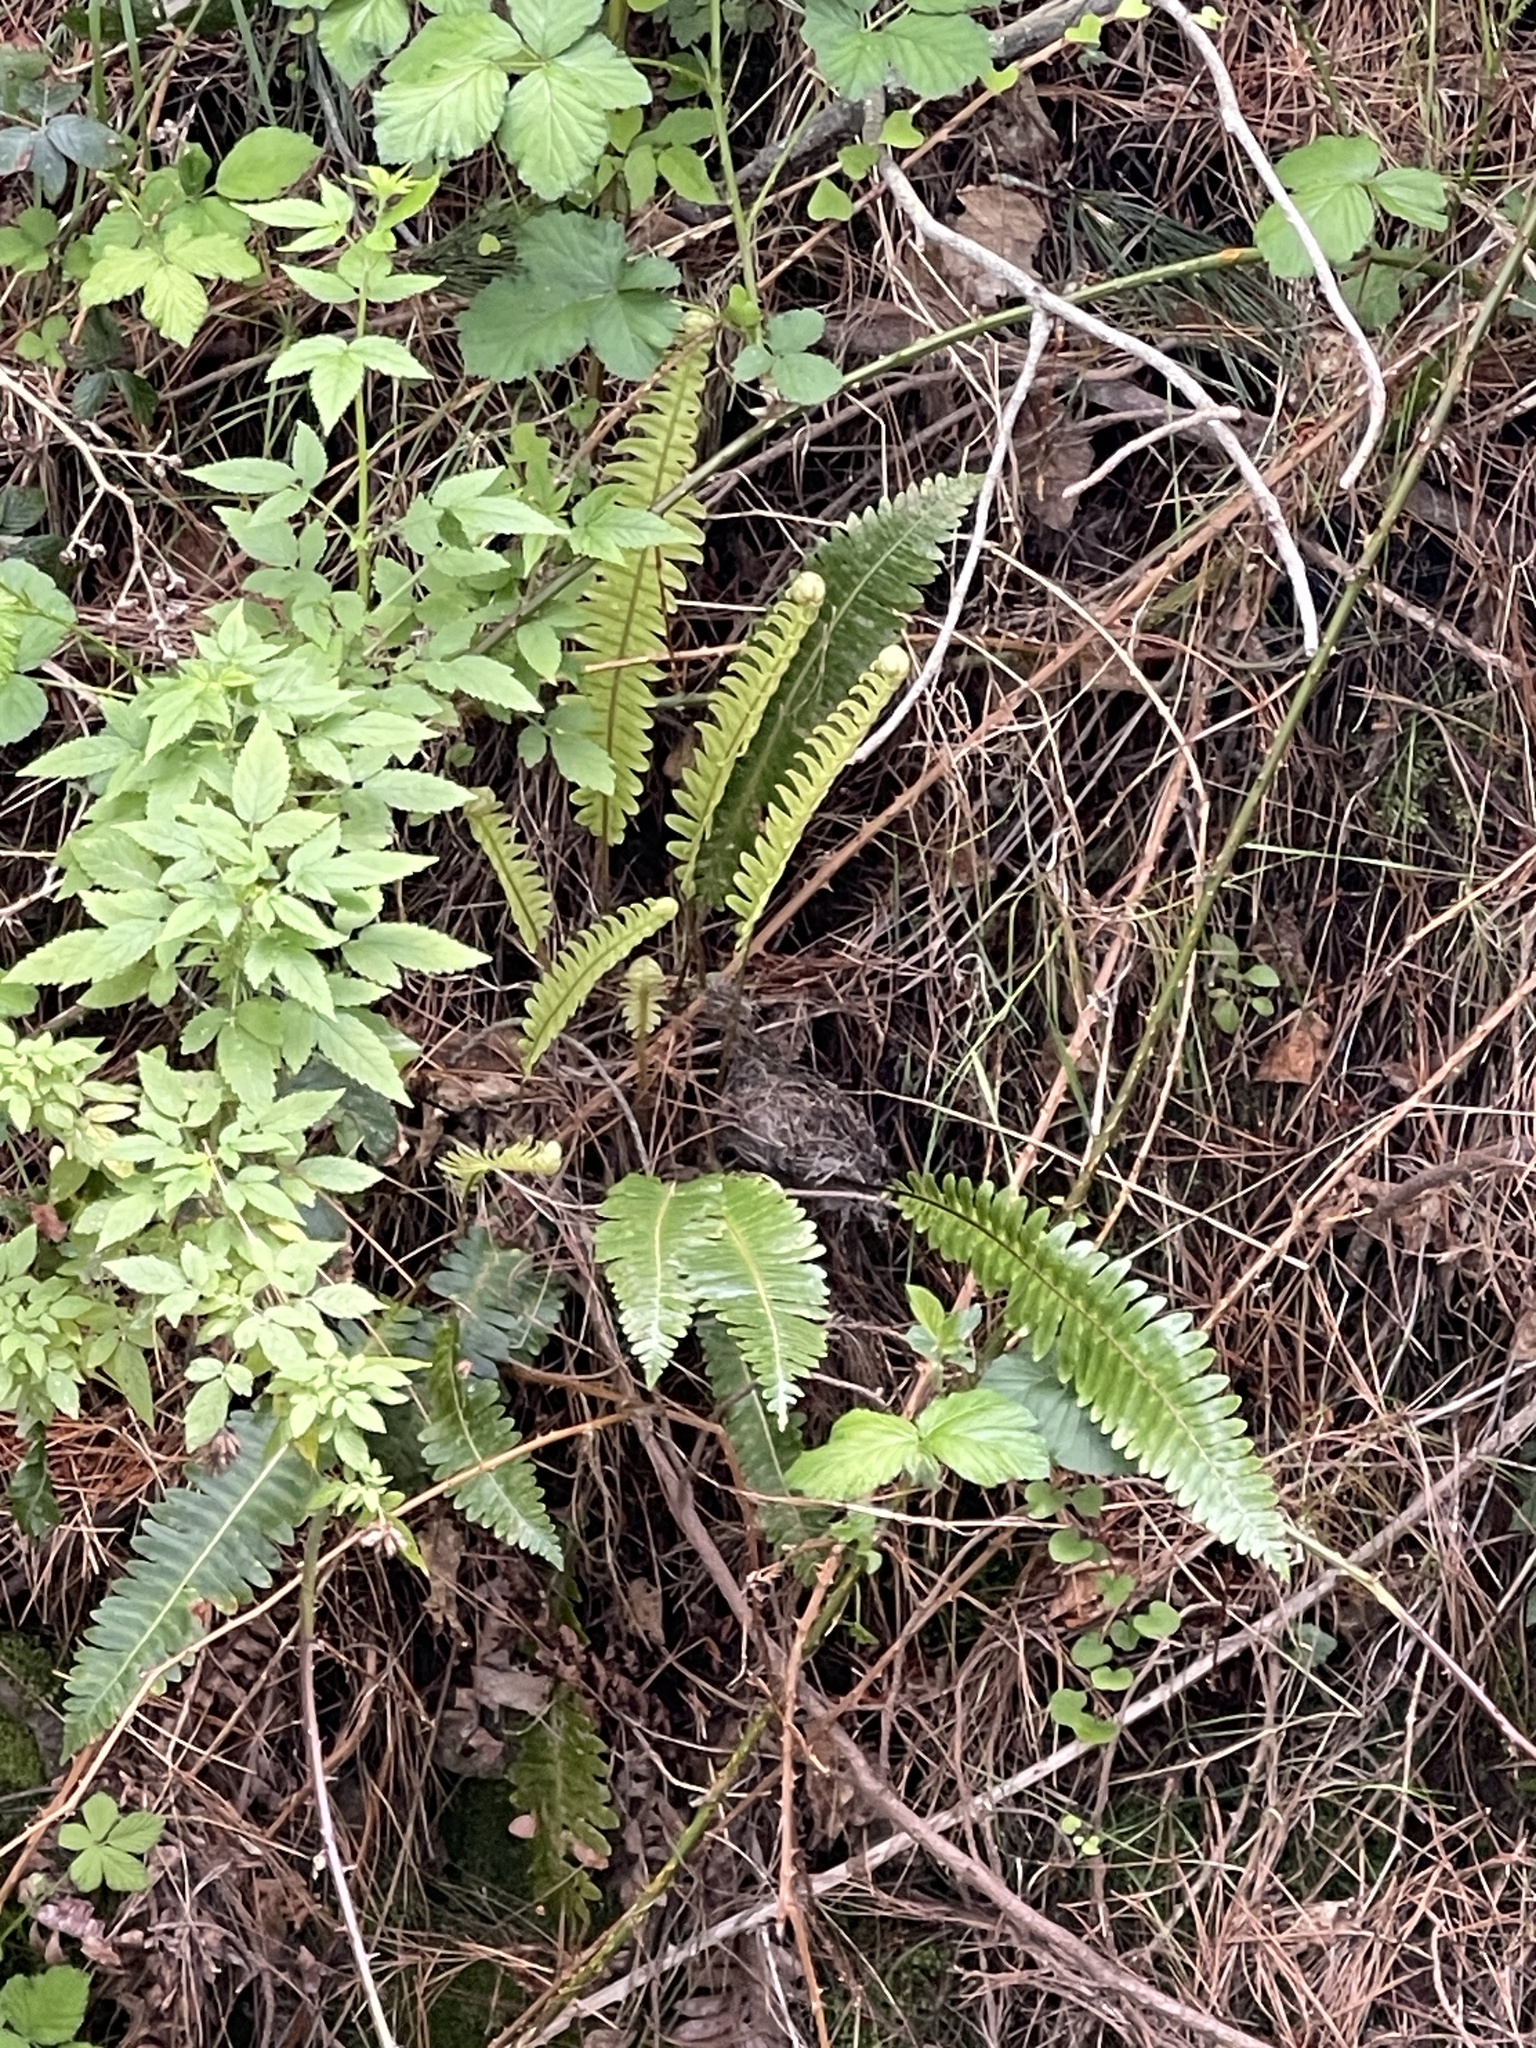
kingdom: Plantae
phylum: Tracheophyta
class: Polypodiopsida
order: Polypodiales
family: Blechnaceae
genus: Lomaria
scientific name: Lomaria discolor
